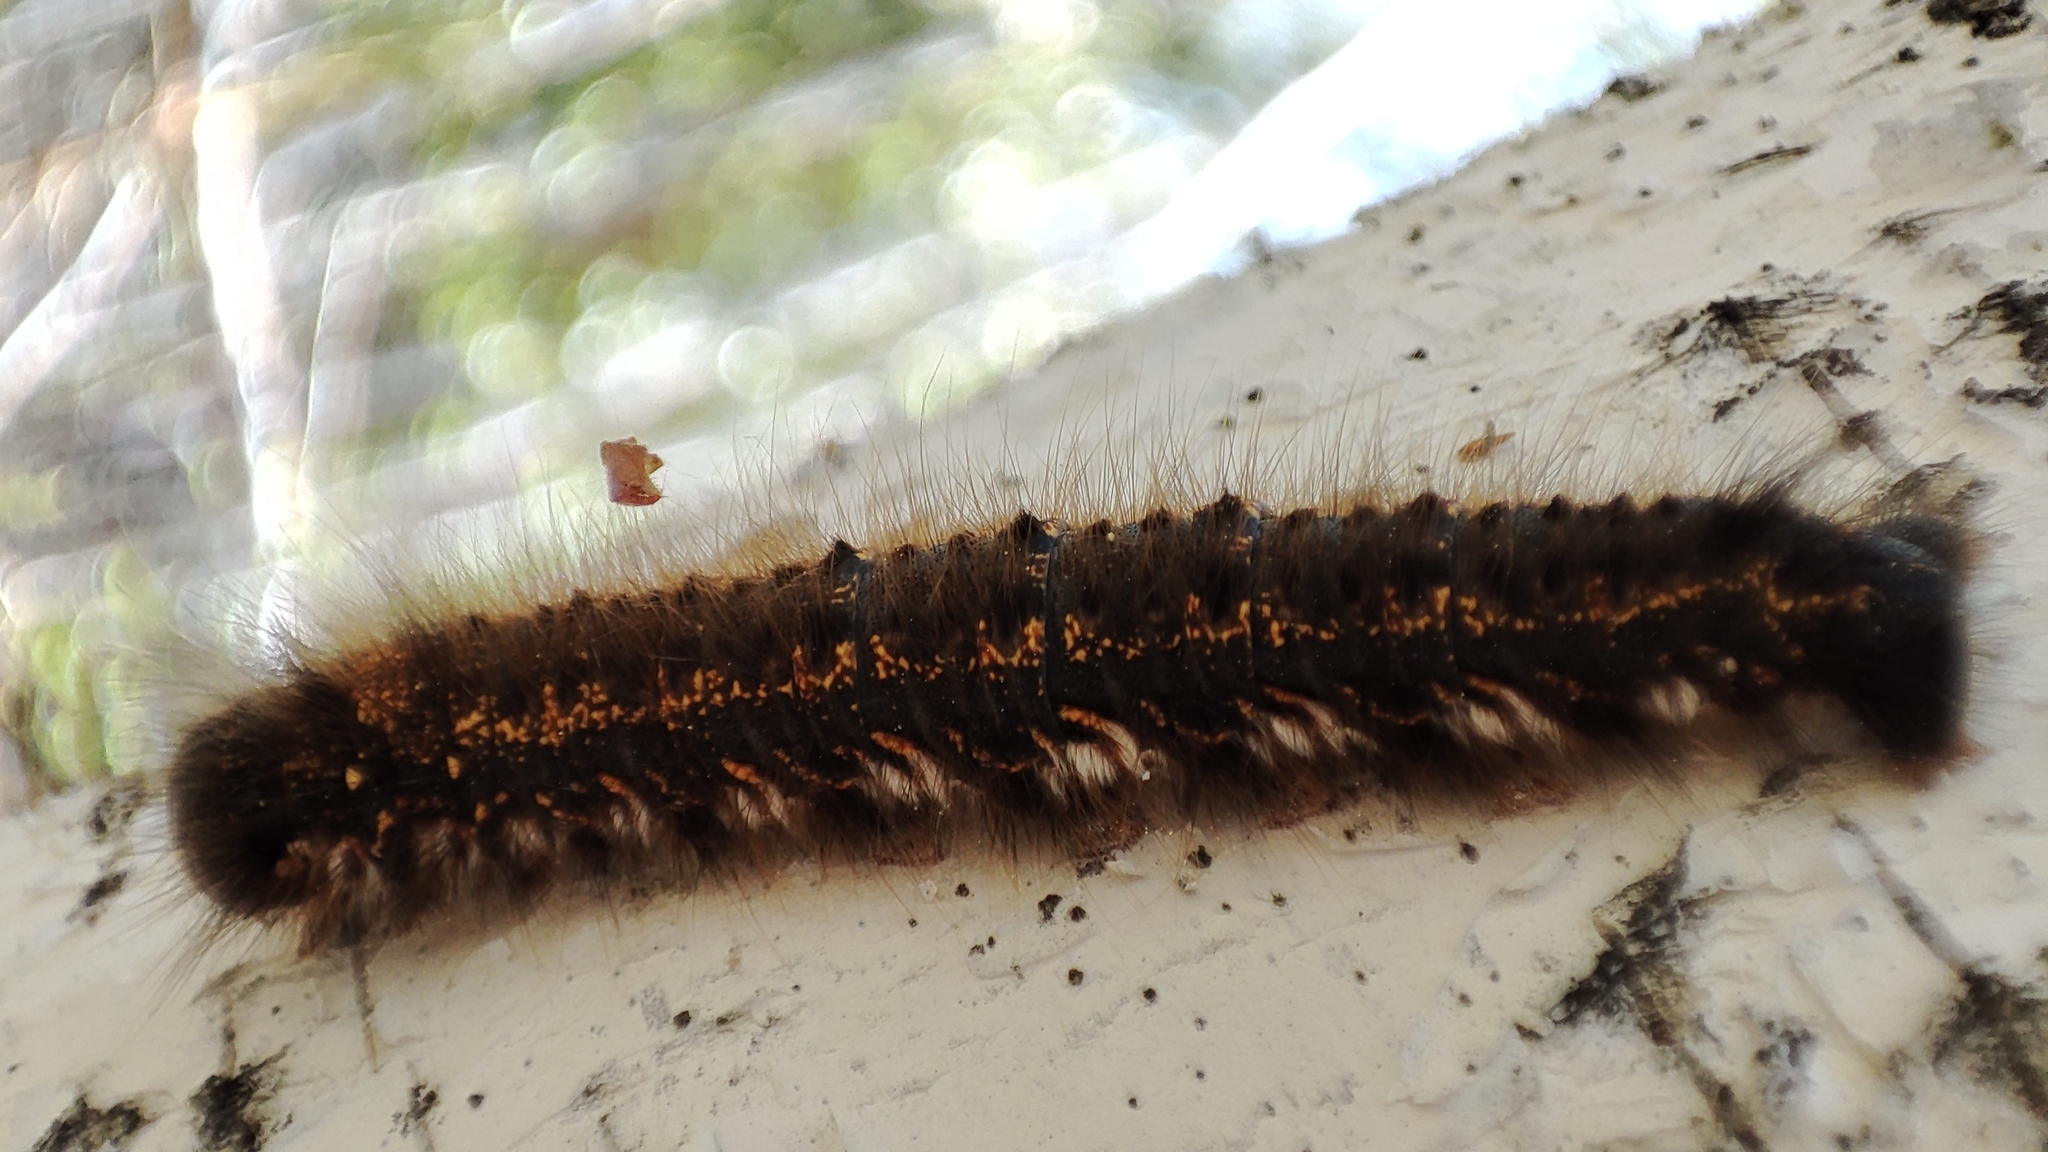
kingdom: Animalia
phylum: Arthropoda
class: Insecta
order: Lepidoptera
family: Lasiocampidae
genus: Euthrix
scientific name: Euthrix potatoria
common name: Drinker
